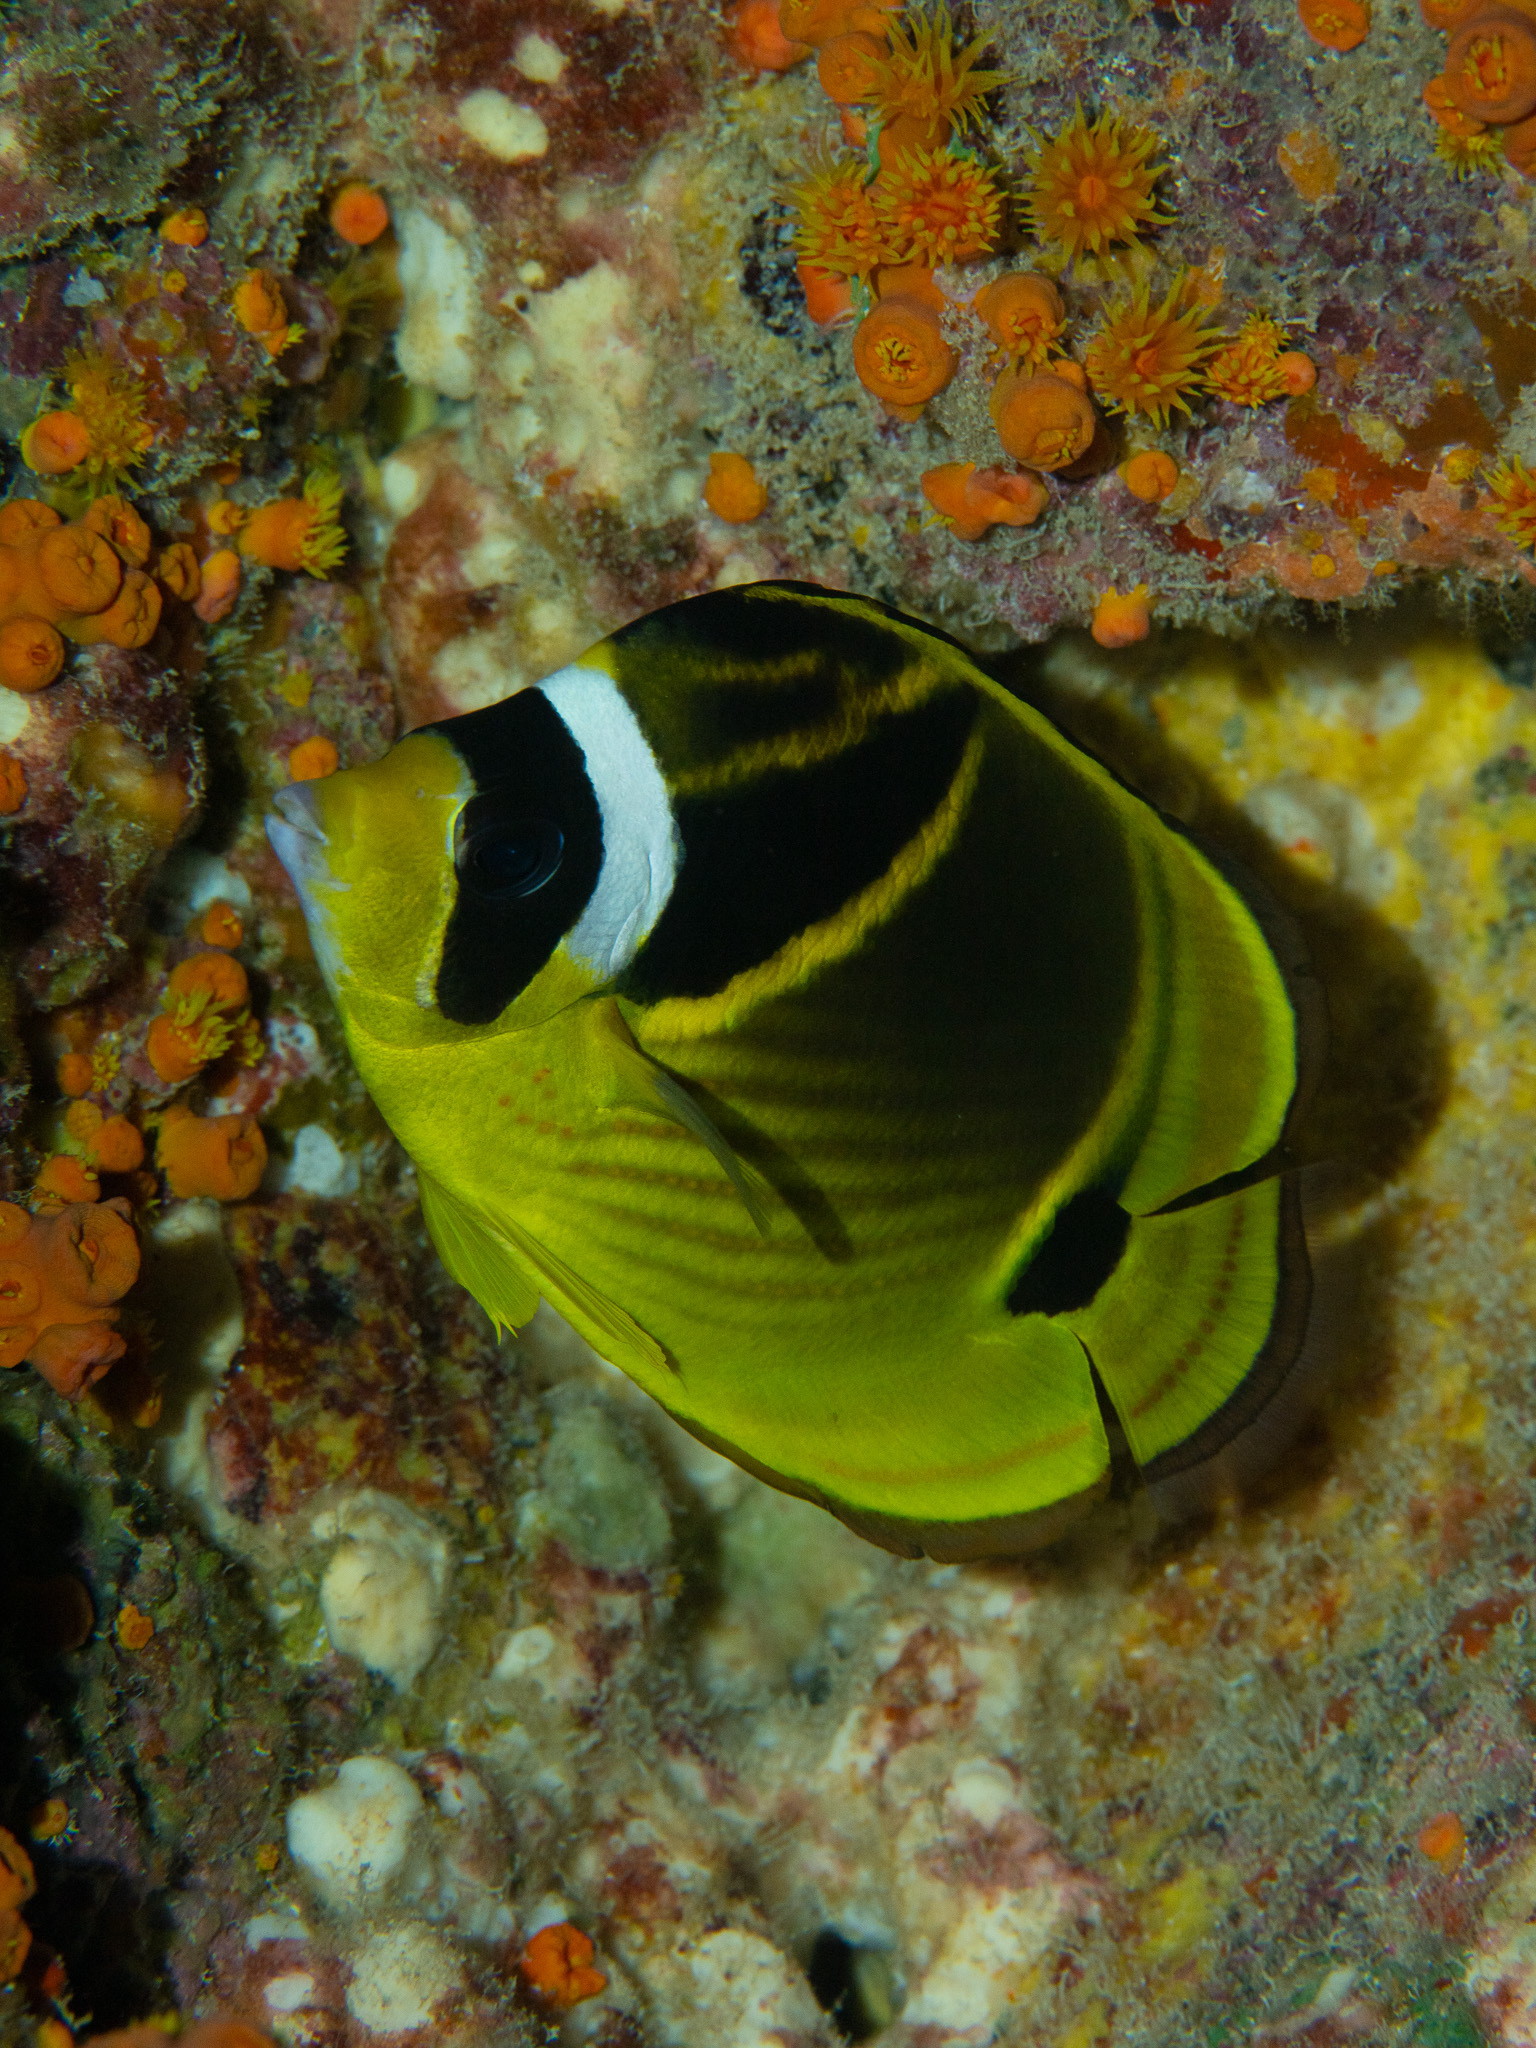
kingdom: Animalia
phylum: Chordata
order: Perciformes
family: Chaetodontidae
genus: Chaetodon
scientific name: Chaetodon lunula
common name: Raccoon butterflyfish
